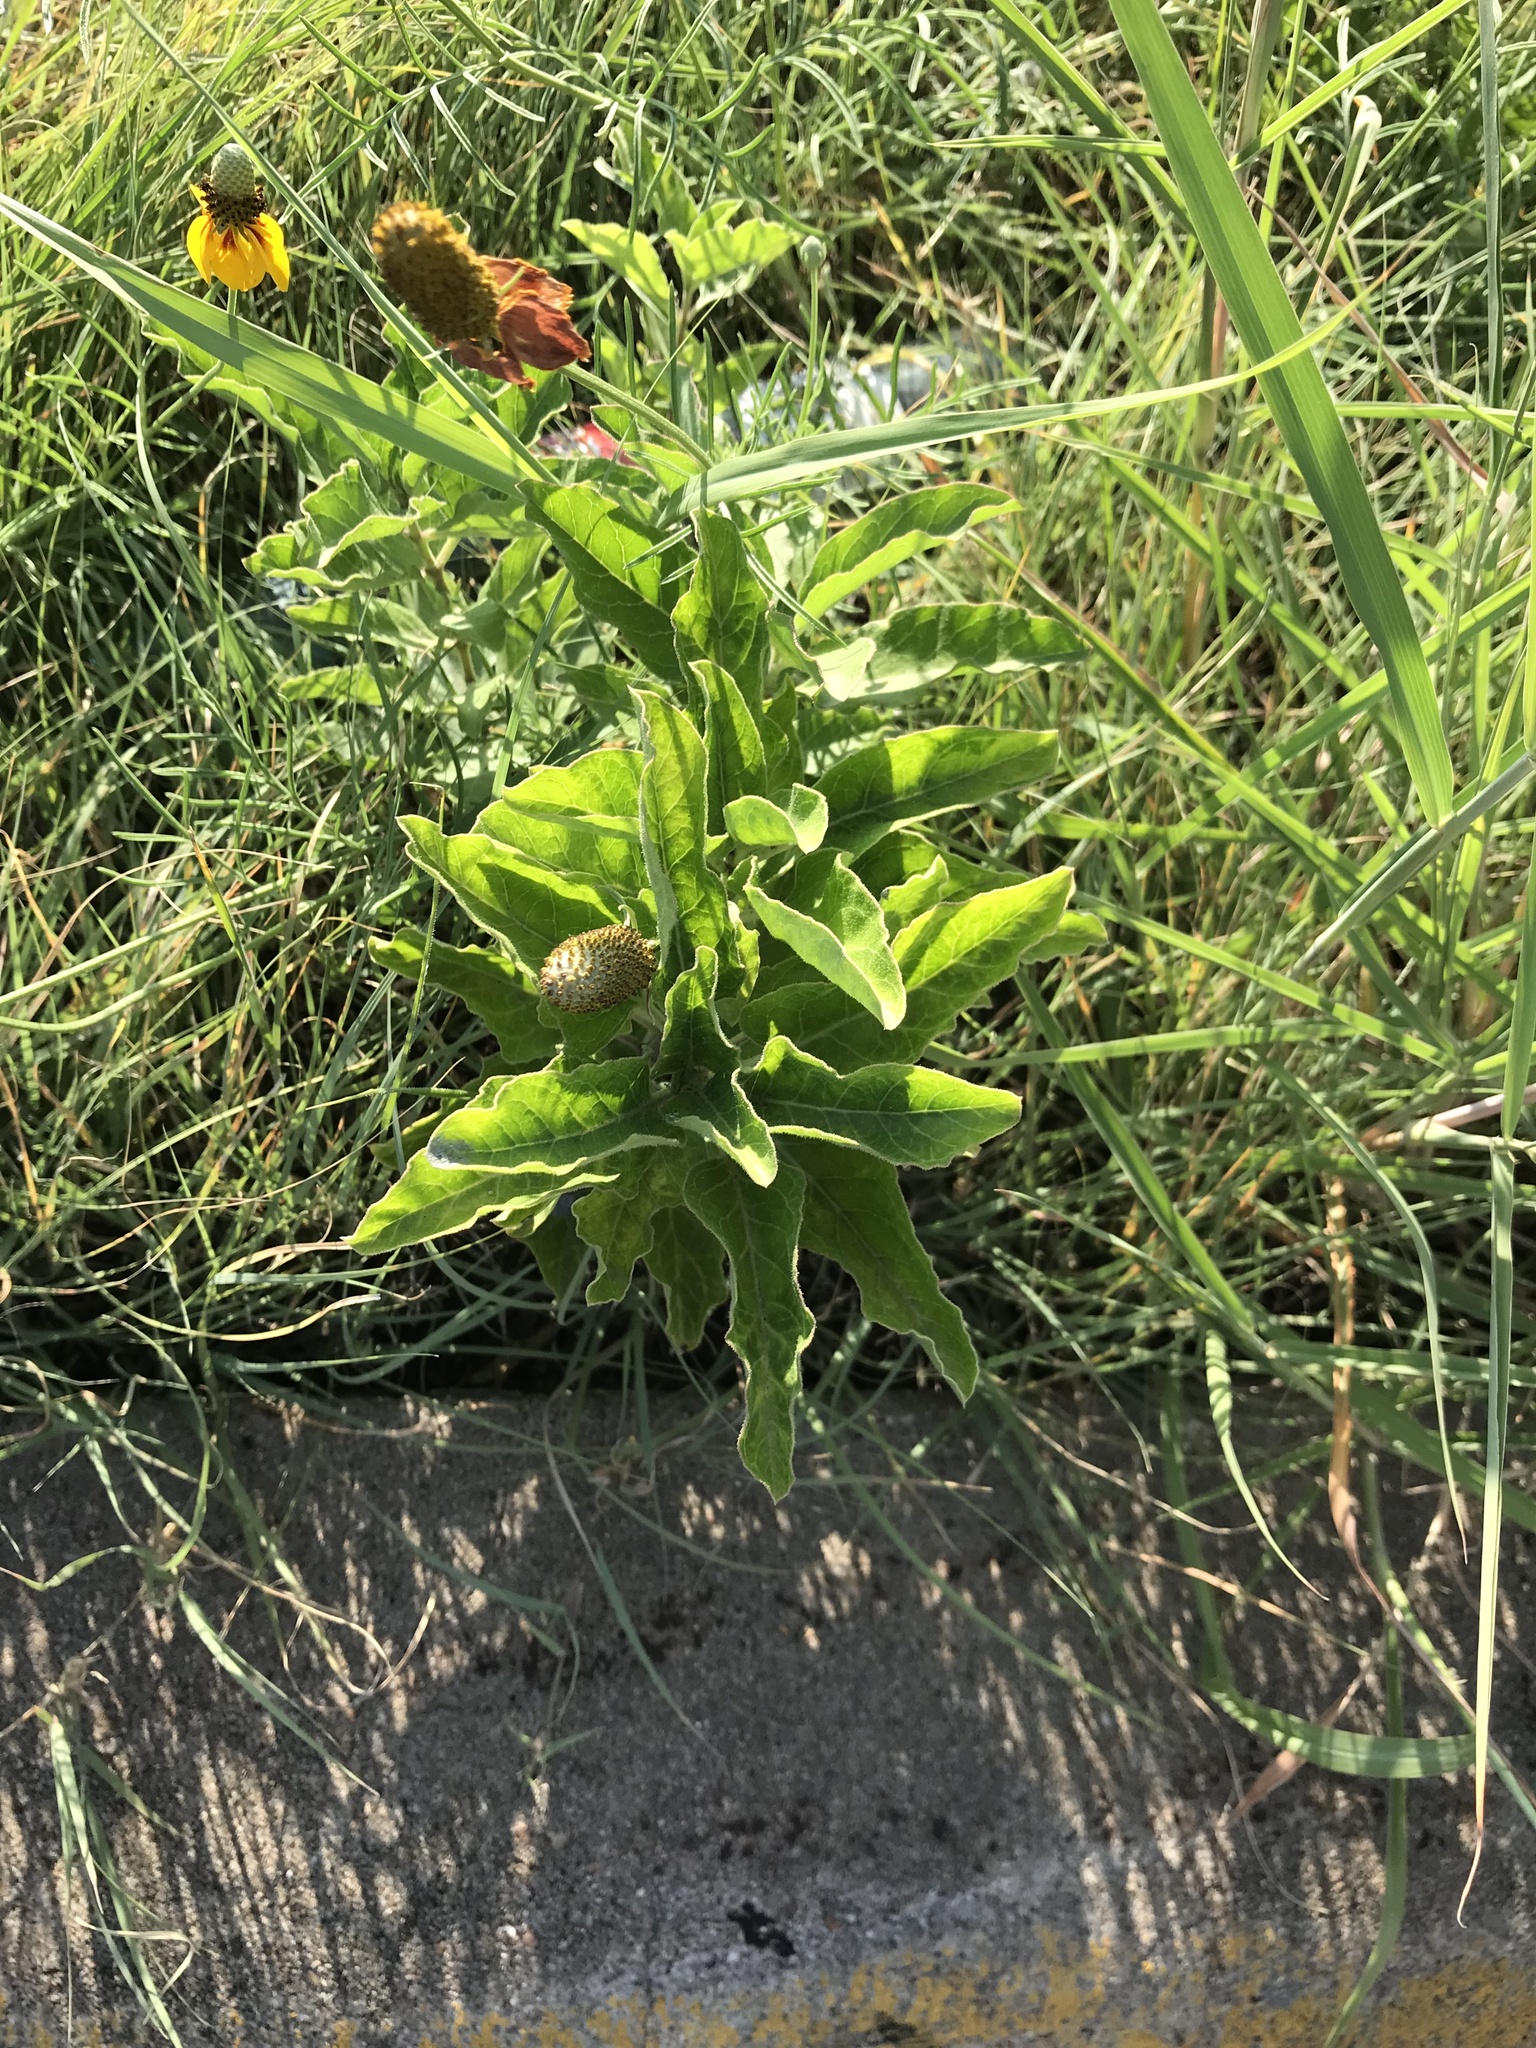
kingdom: Plantae
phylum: Tracheophyta
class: Magnoliopsida
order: Gentianales
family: Apocynaceae
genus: Asclepias
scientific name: Asclepias oenotheroides
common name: Zizotes milkweed
